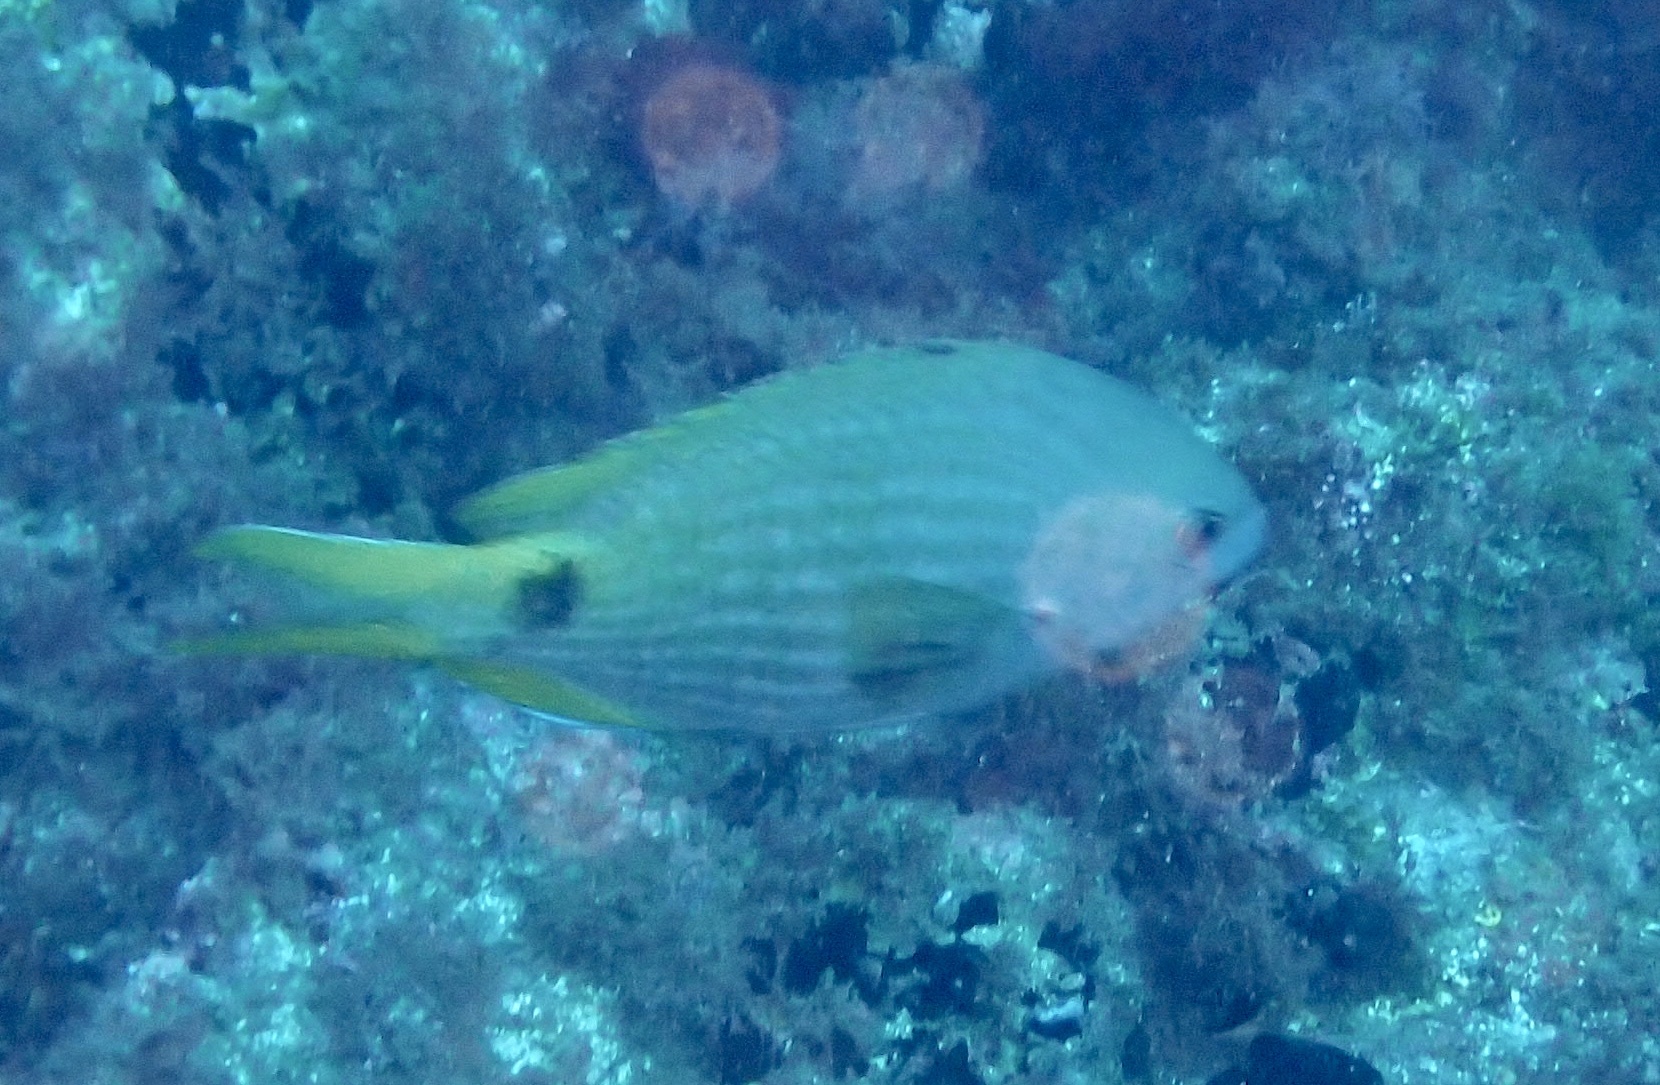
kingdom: Animalia
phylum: Chordata
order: Perciformes
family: Pomacentridae
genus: Chromis
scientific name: Chromis lubbocki
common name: Lubbock's chromis
